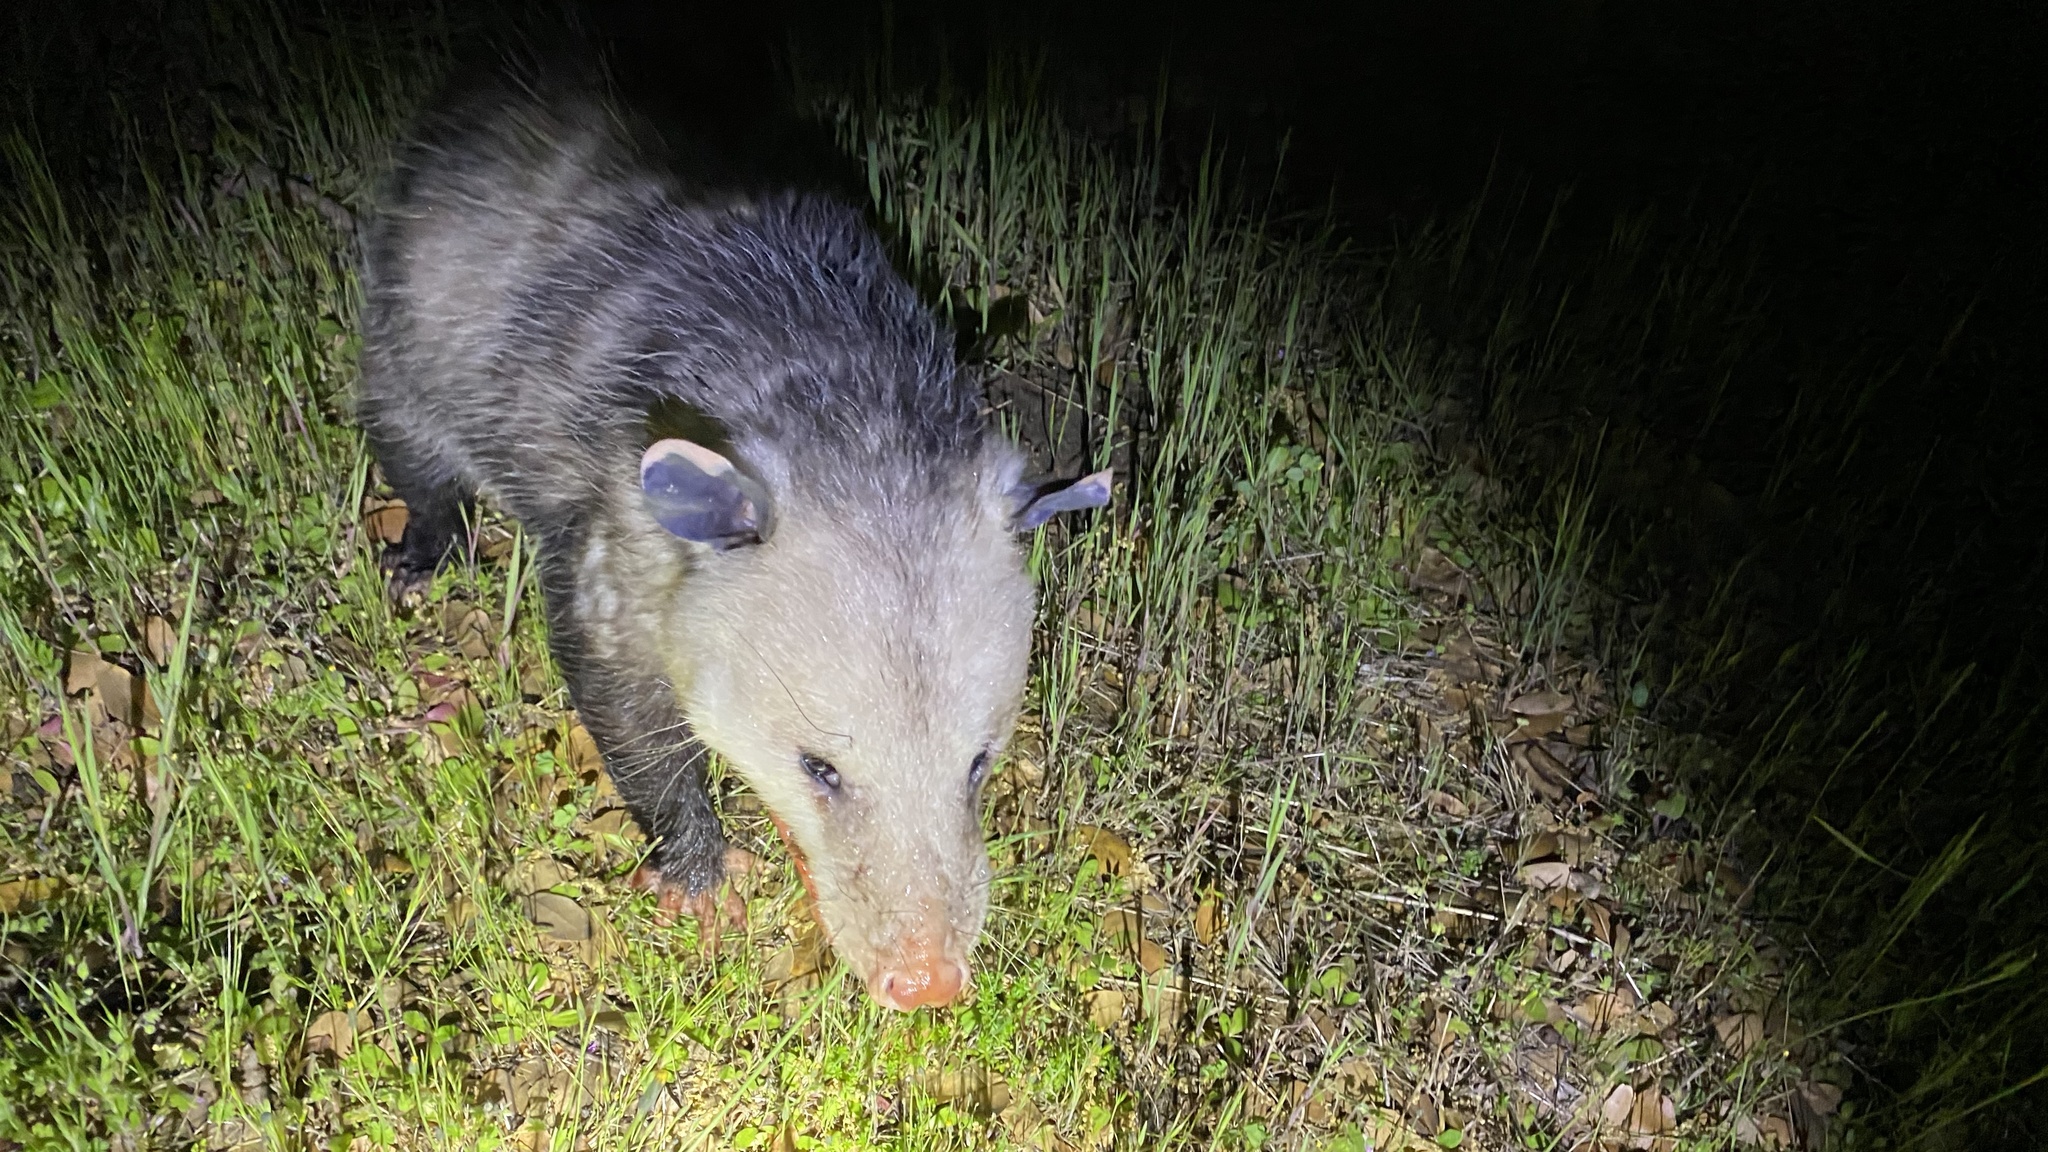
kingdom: Animalia
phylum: Chordata
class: Mammalia
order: Didelphimorphia
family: Didelphidae
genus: Didelphis
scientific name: Didelphis virginiana
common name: Virginia opossum
